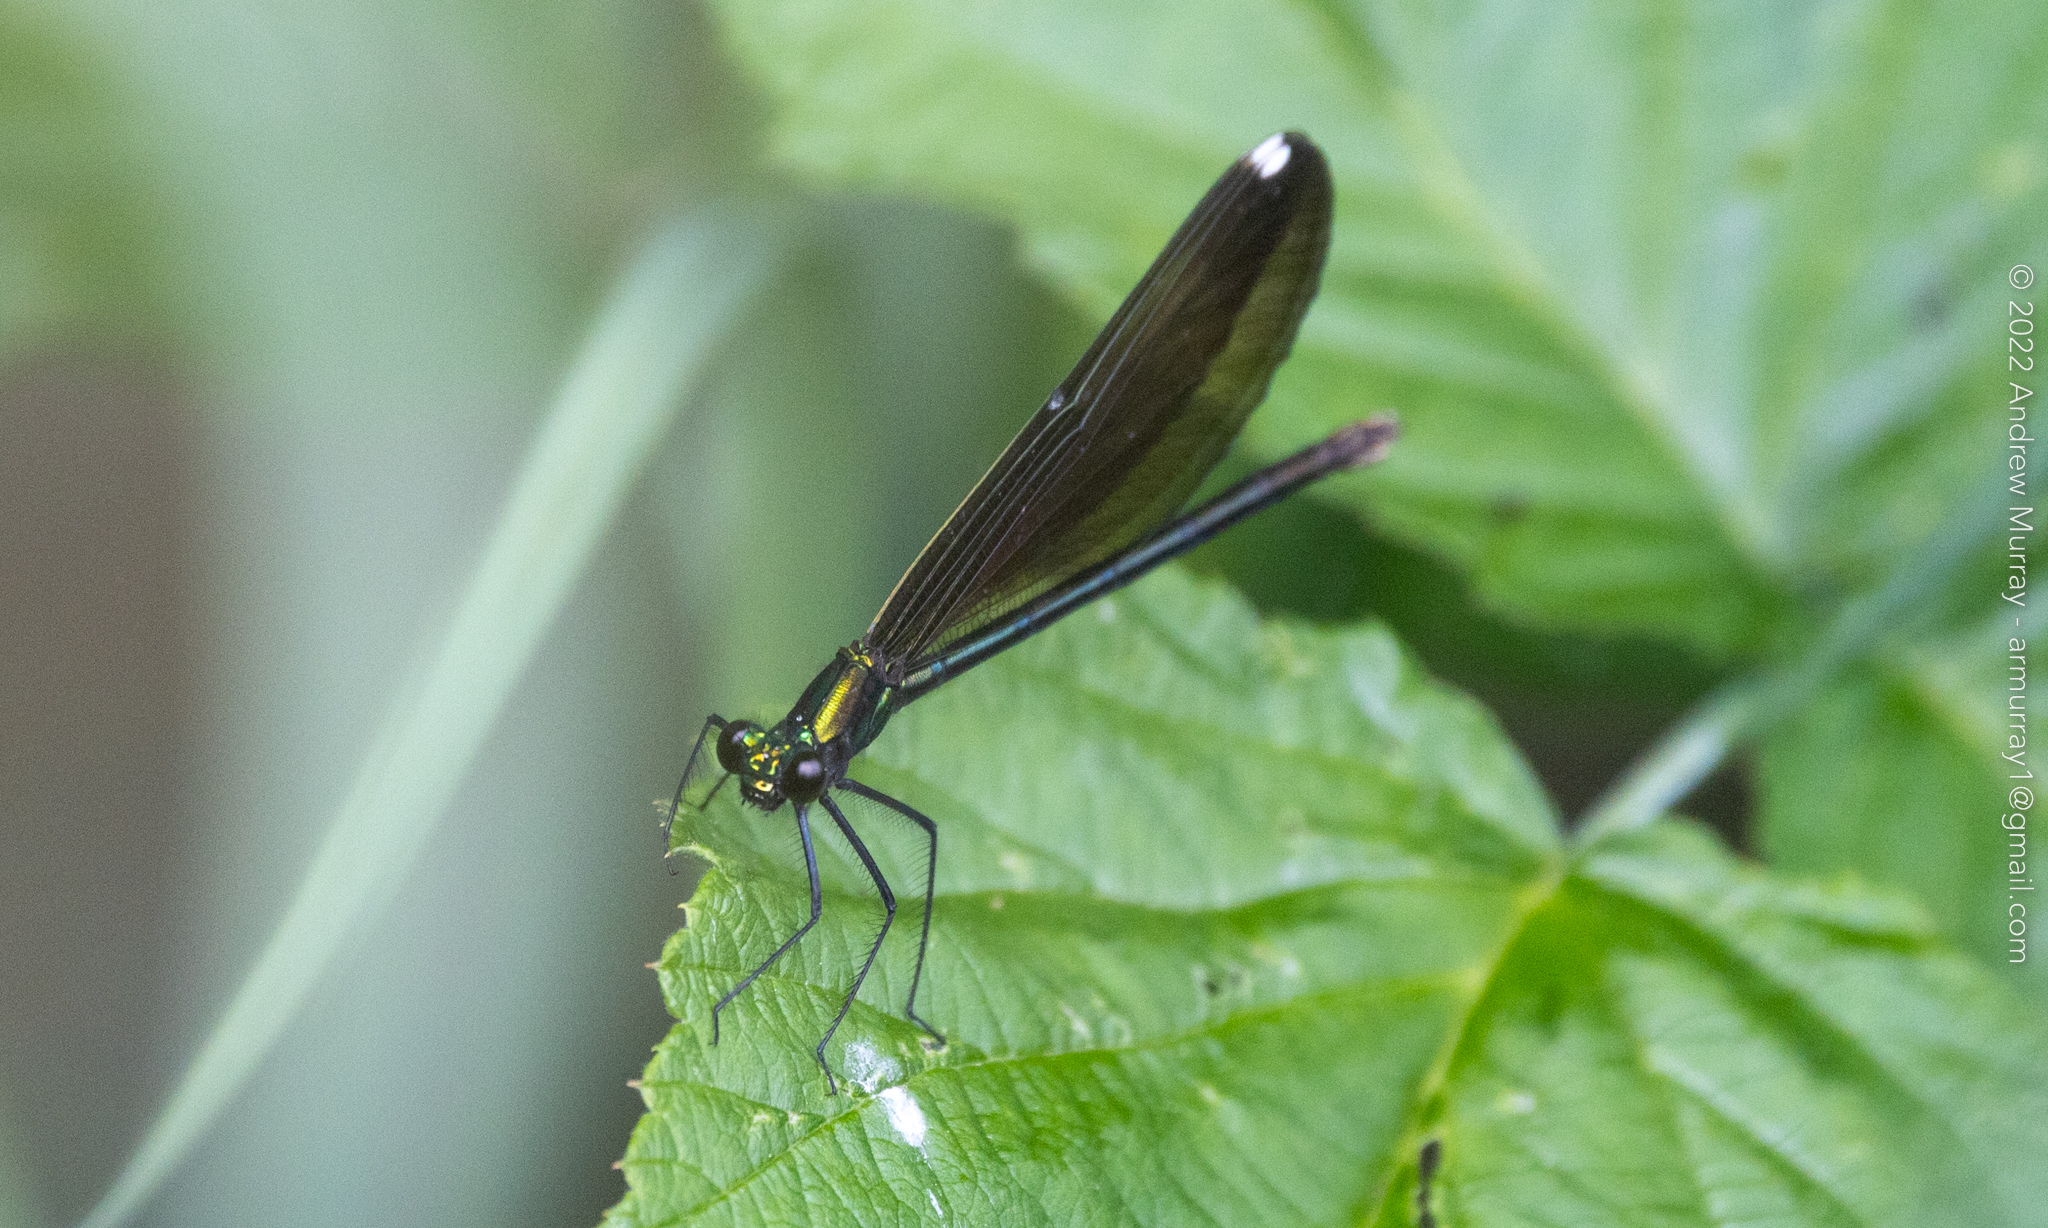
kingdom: Animalia
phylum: Arthropoda
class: Insecta
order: Odonata
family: Calopterygidae
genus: Calopteryx
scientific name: Calopteryx maculata
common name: Ebony jewelwing
